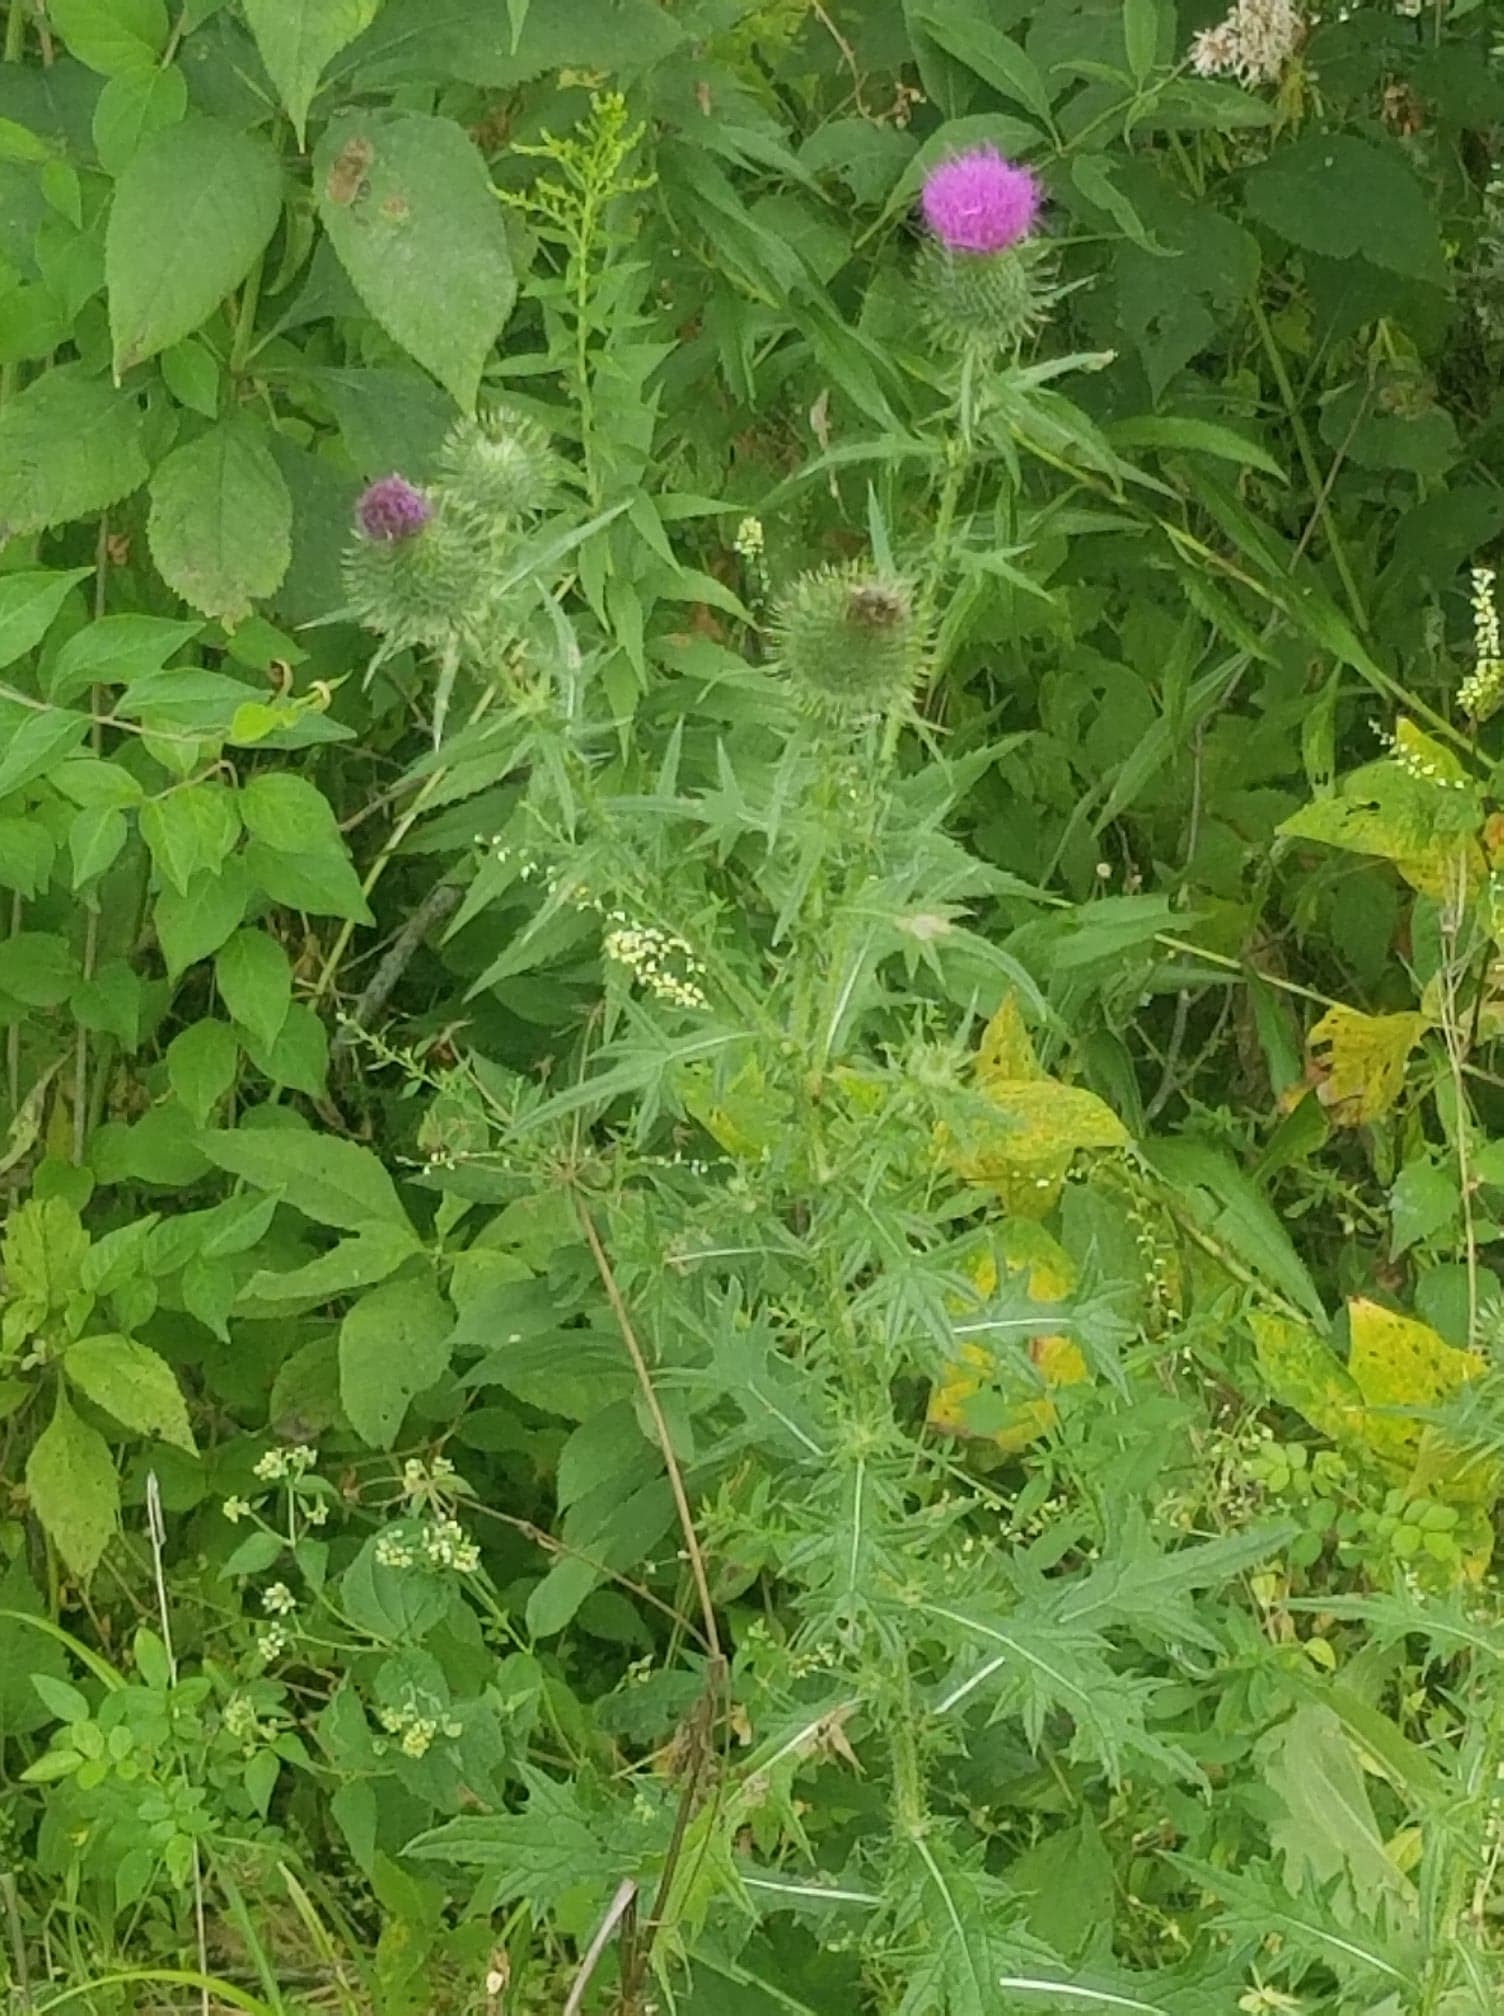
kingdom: Plantae
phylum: Tracheophyta
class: Magnoliopsida
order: Asterales
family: Asteraceae
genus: Cirsium
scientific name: Cirsium vulgare
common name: Bull thistle
